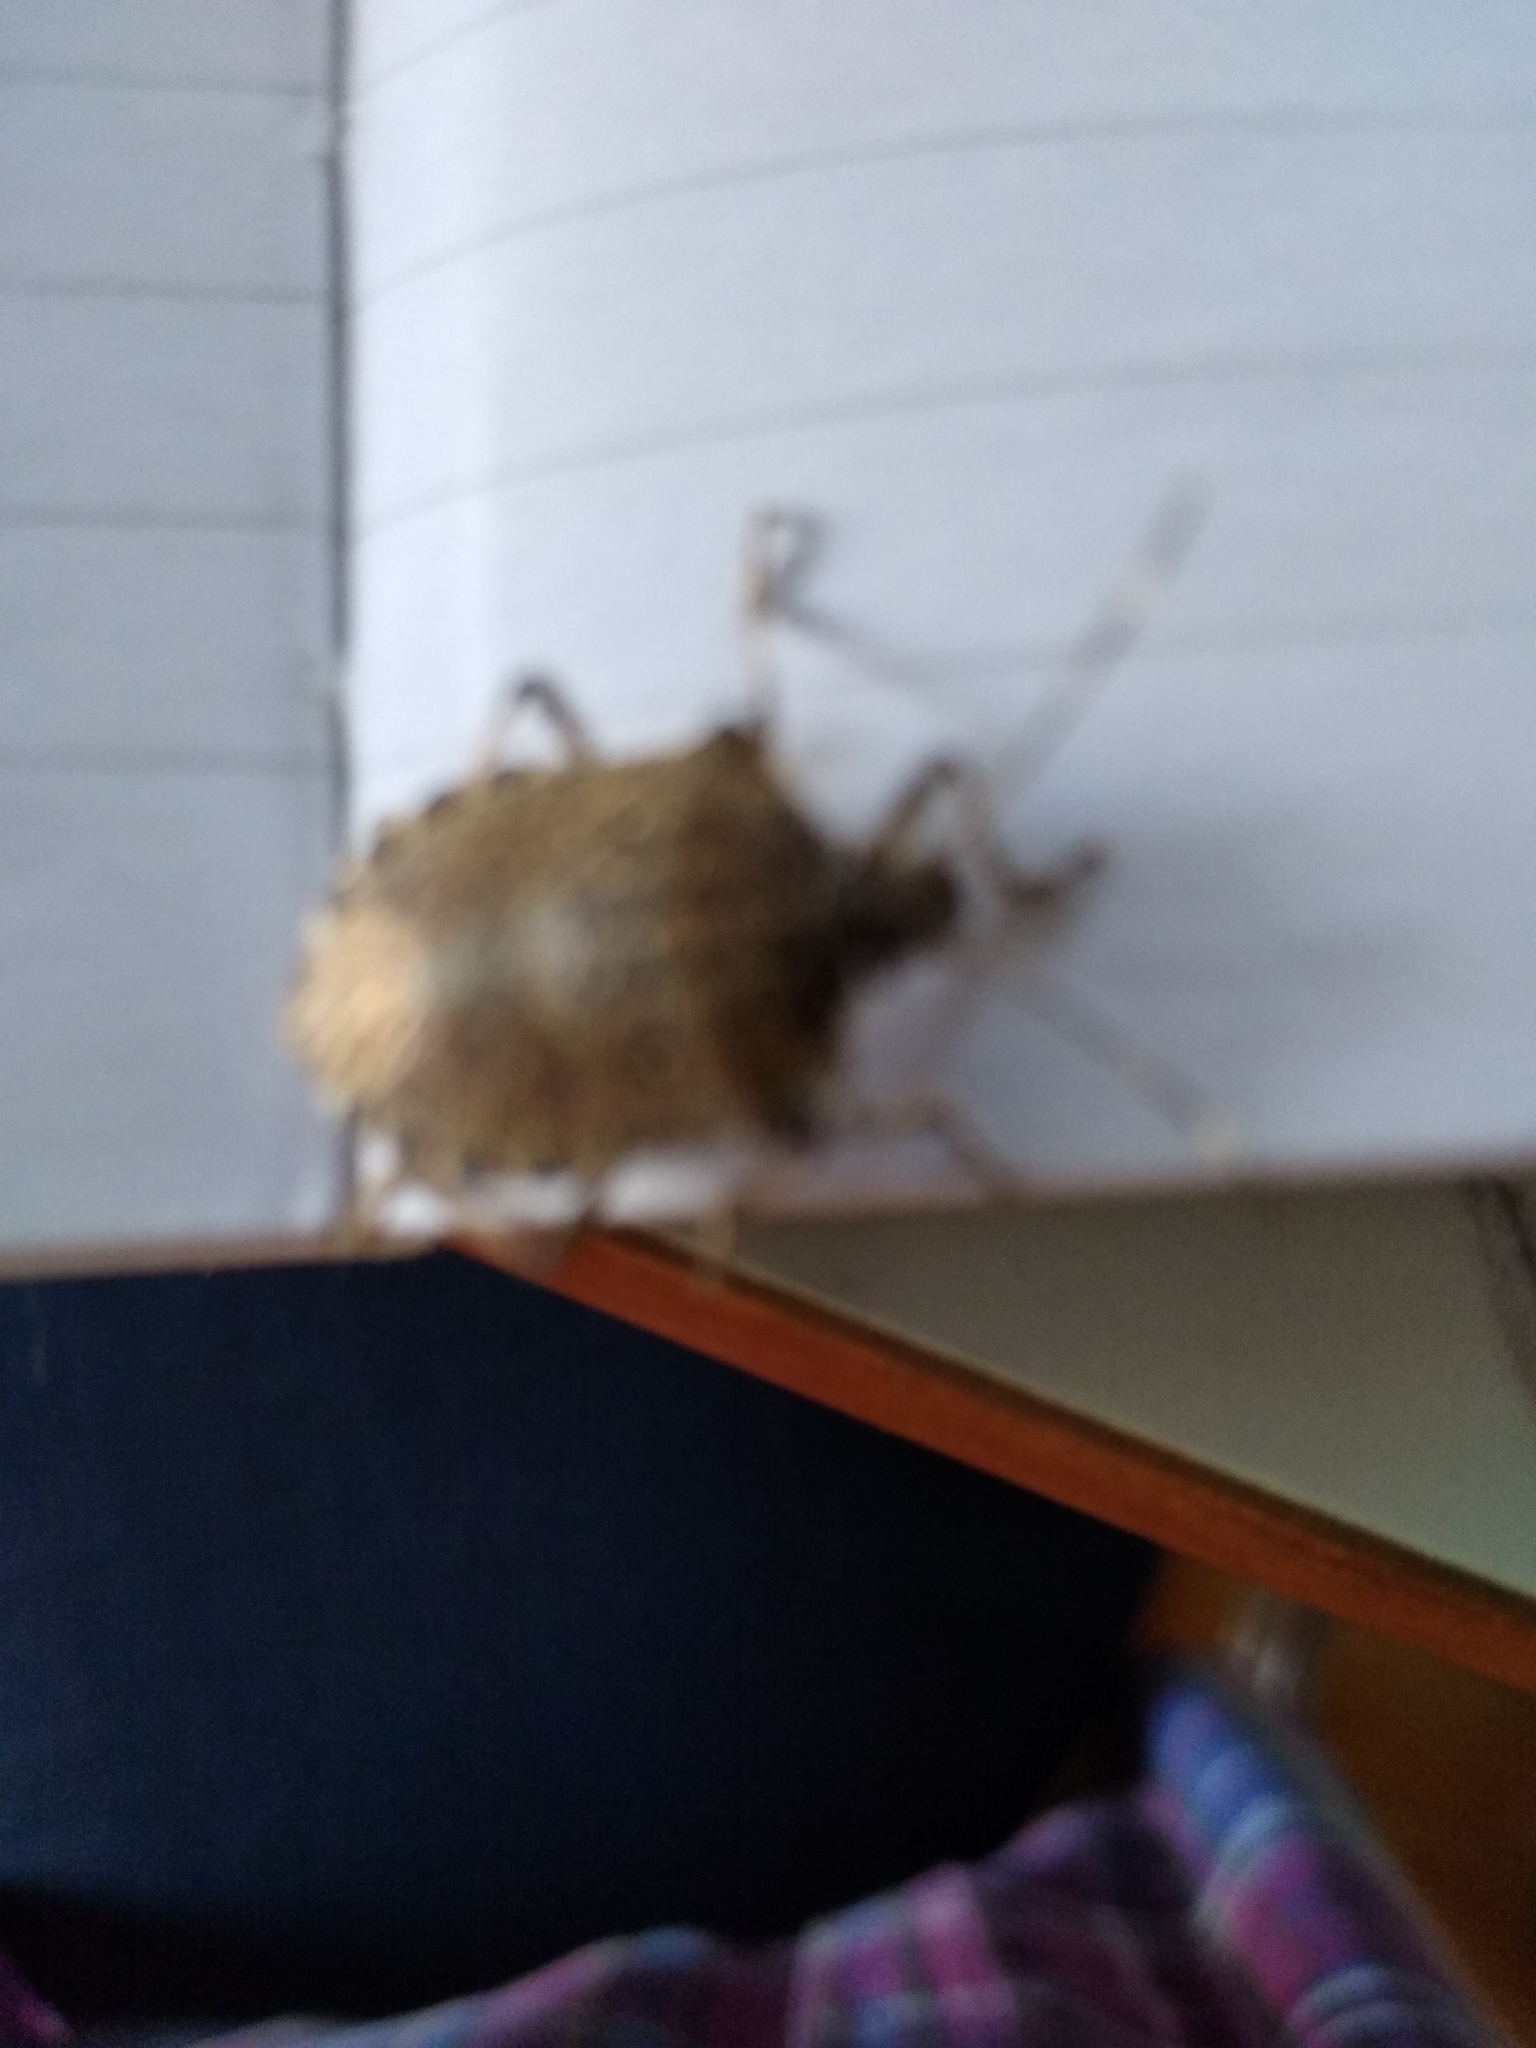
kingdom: Animalia
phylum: Arthropoda
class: Insecta
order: Hemiptera
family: Pentatomidae
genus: Halyomorpha
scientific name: Halyomorpha halys
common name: Brown marmorated stink bug
